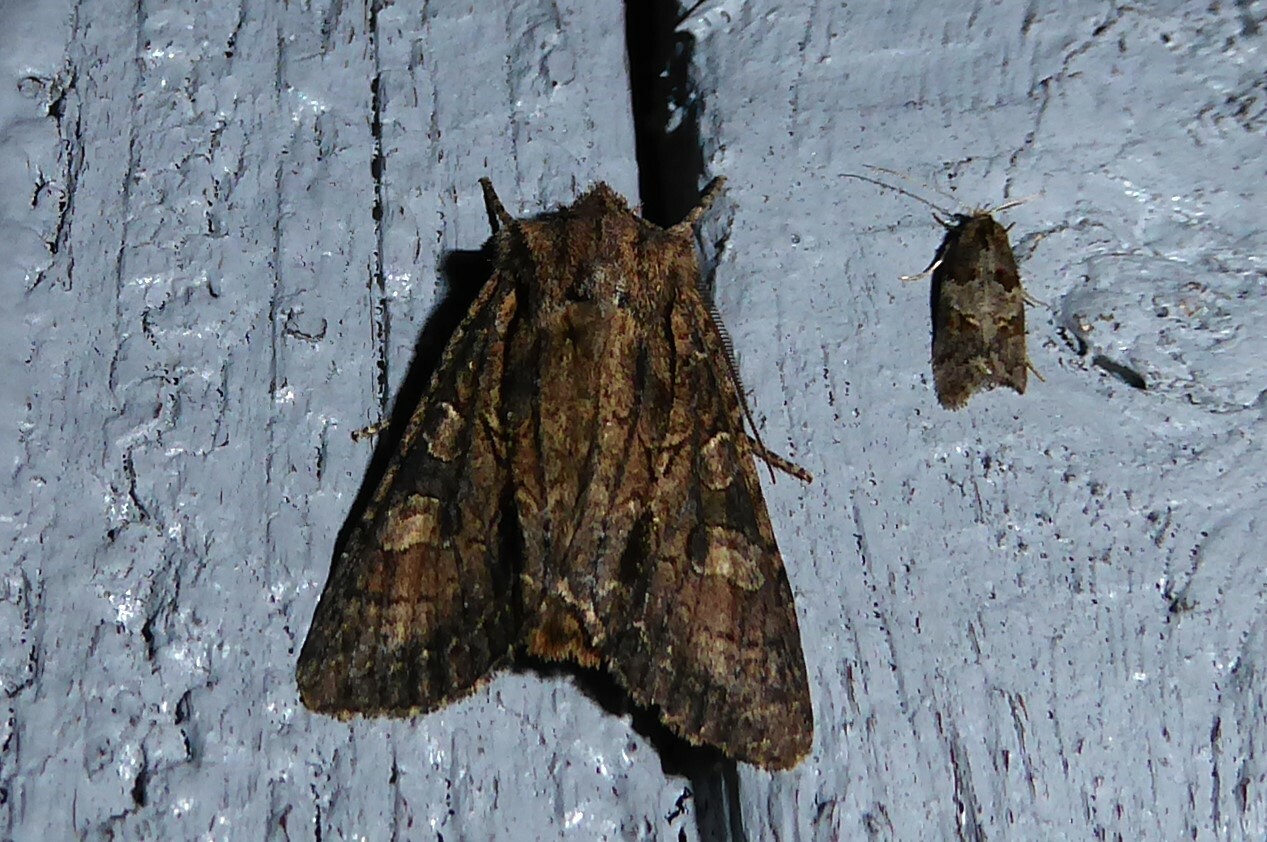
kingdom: Animalia
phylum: Arthropoda
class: Insecta
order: Lepidoptera
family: Noctuidae
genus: Ichneutica
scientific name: Ichneutica mutans
